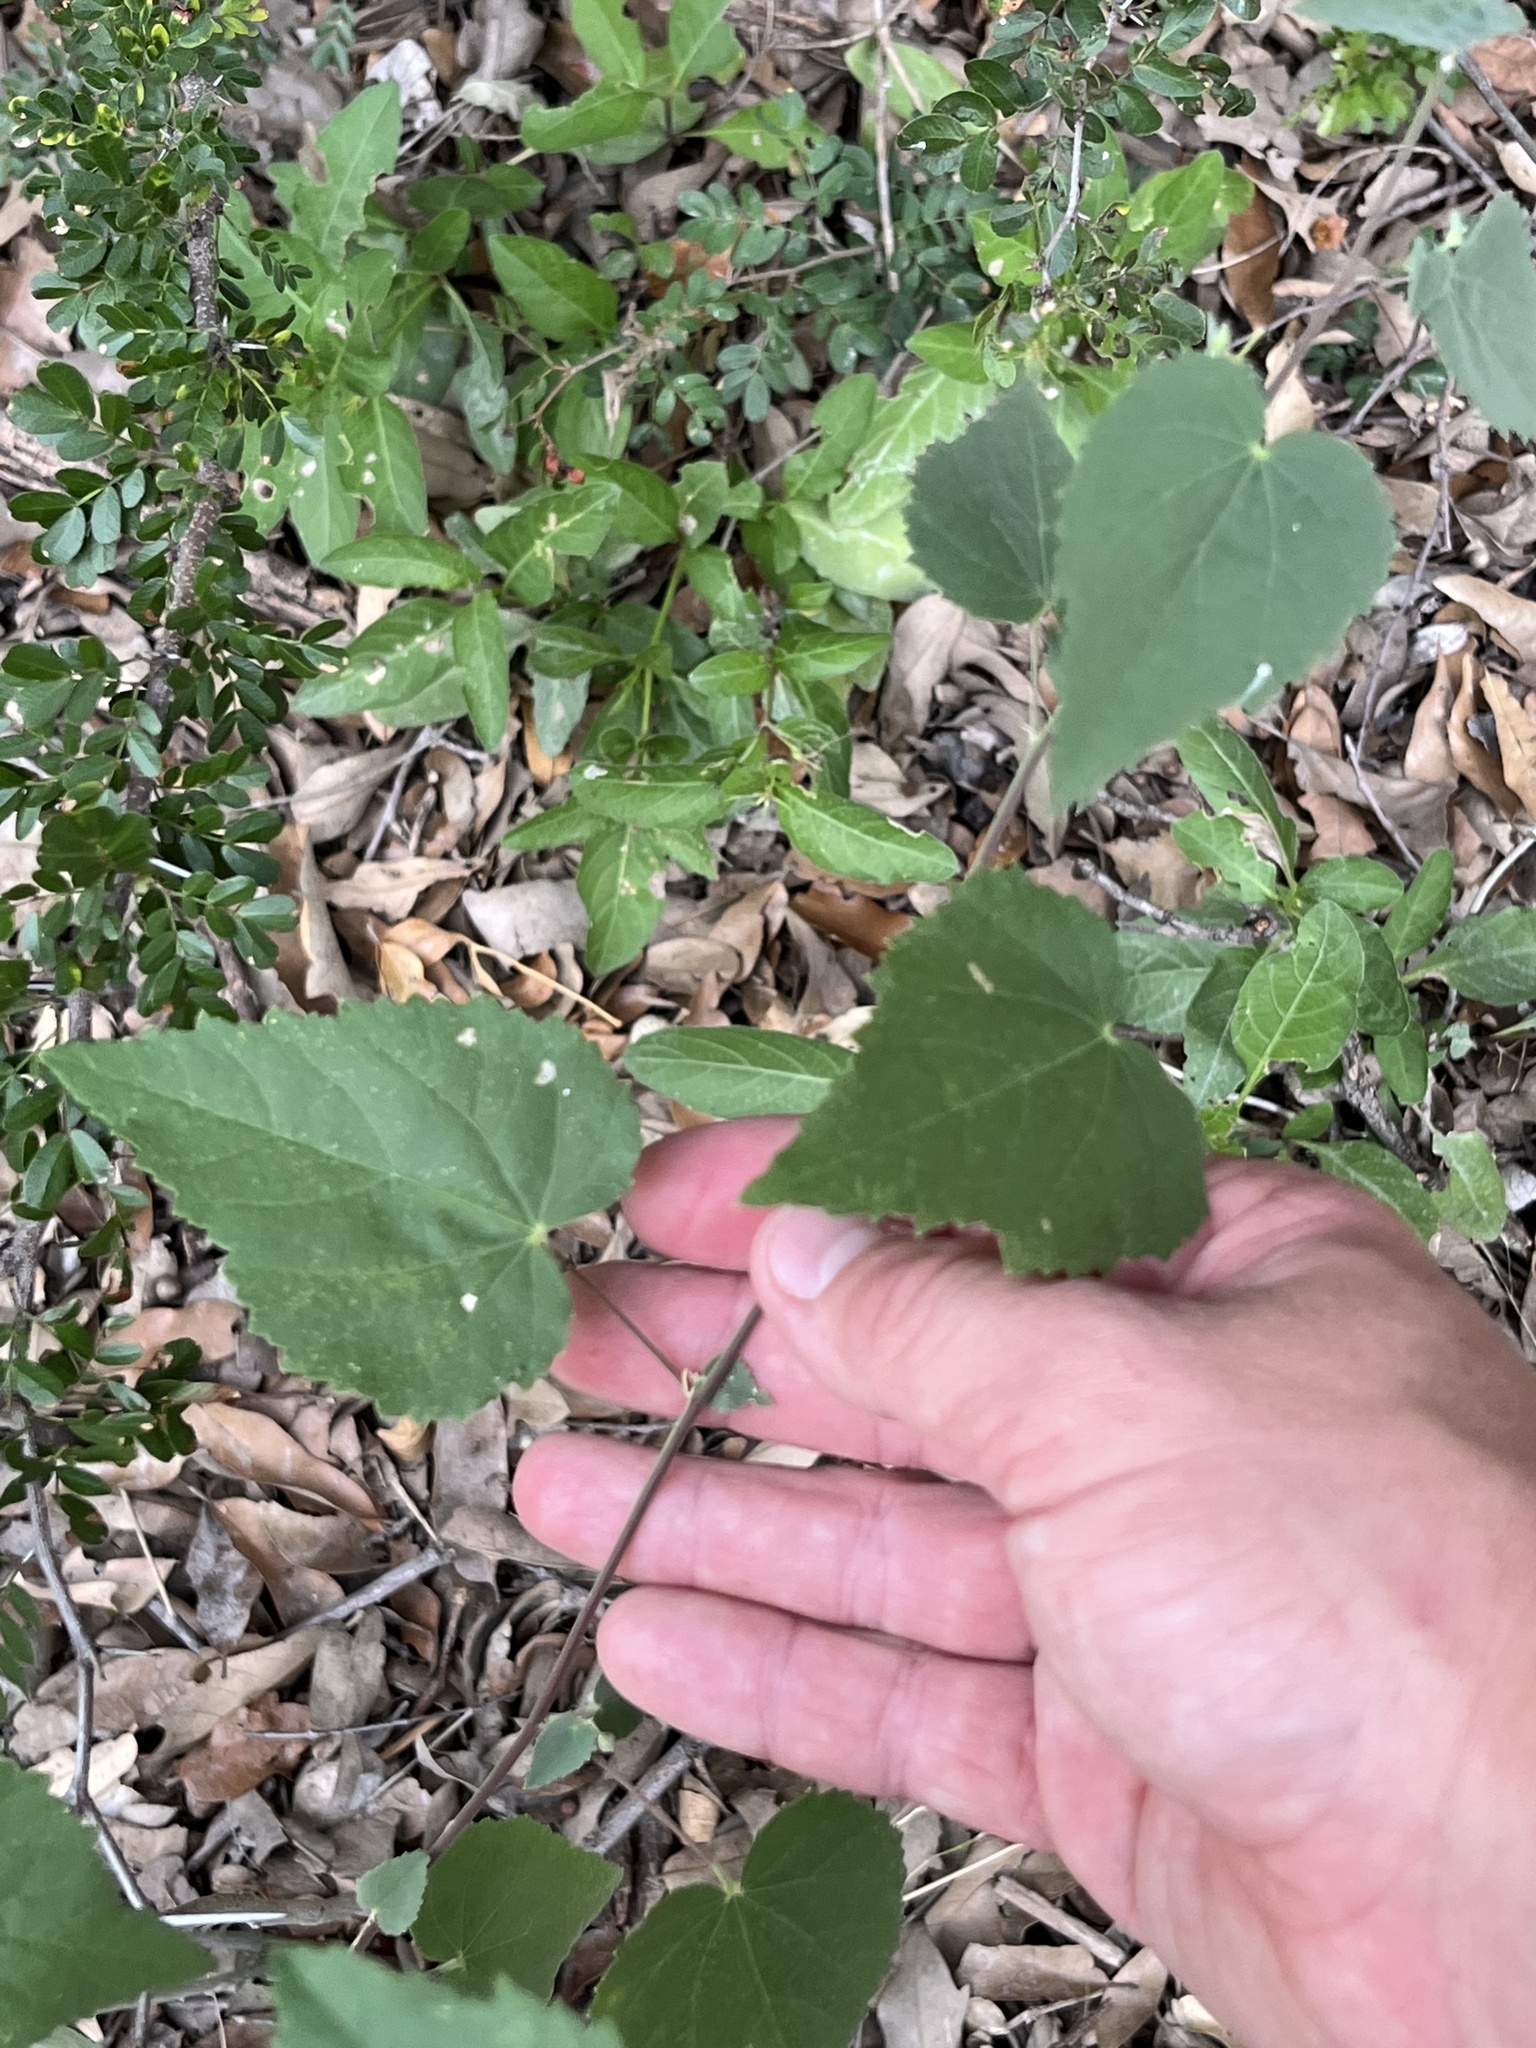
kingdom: Plantae
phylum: Tracheophyta
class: Magnoliopsida
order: Malvales
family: Malvaceae
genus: Abutilon
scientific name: Abutilon fruticosum
